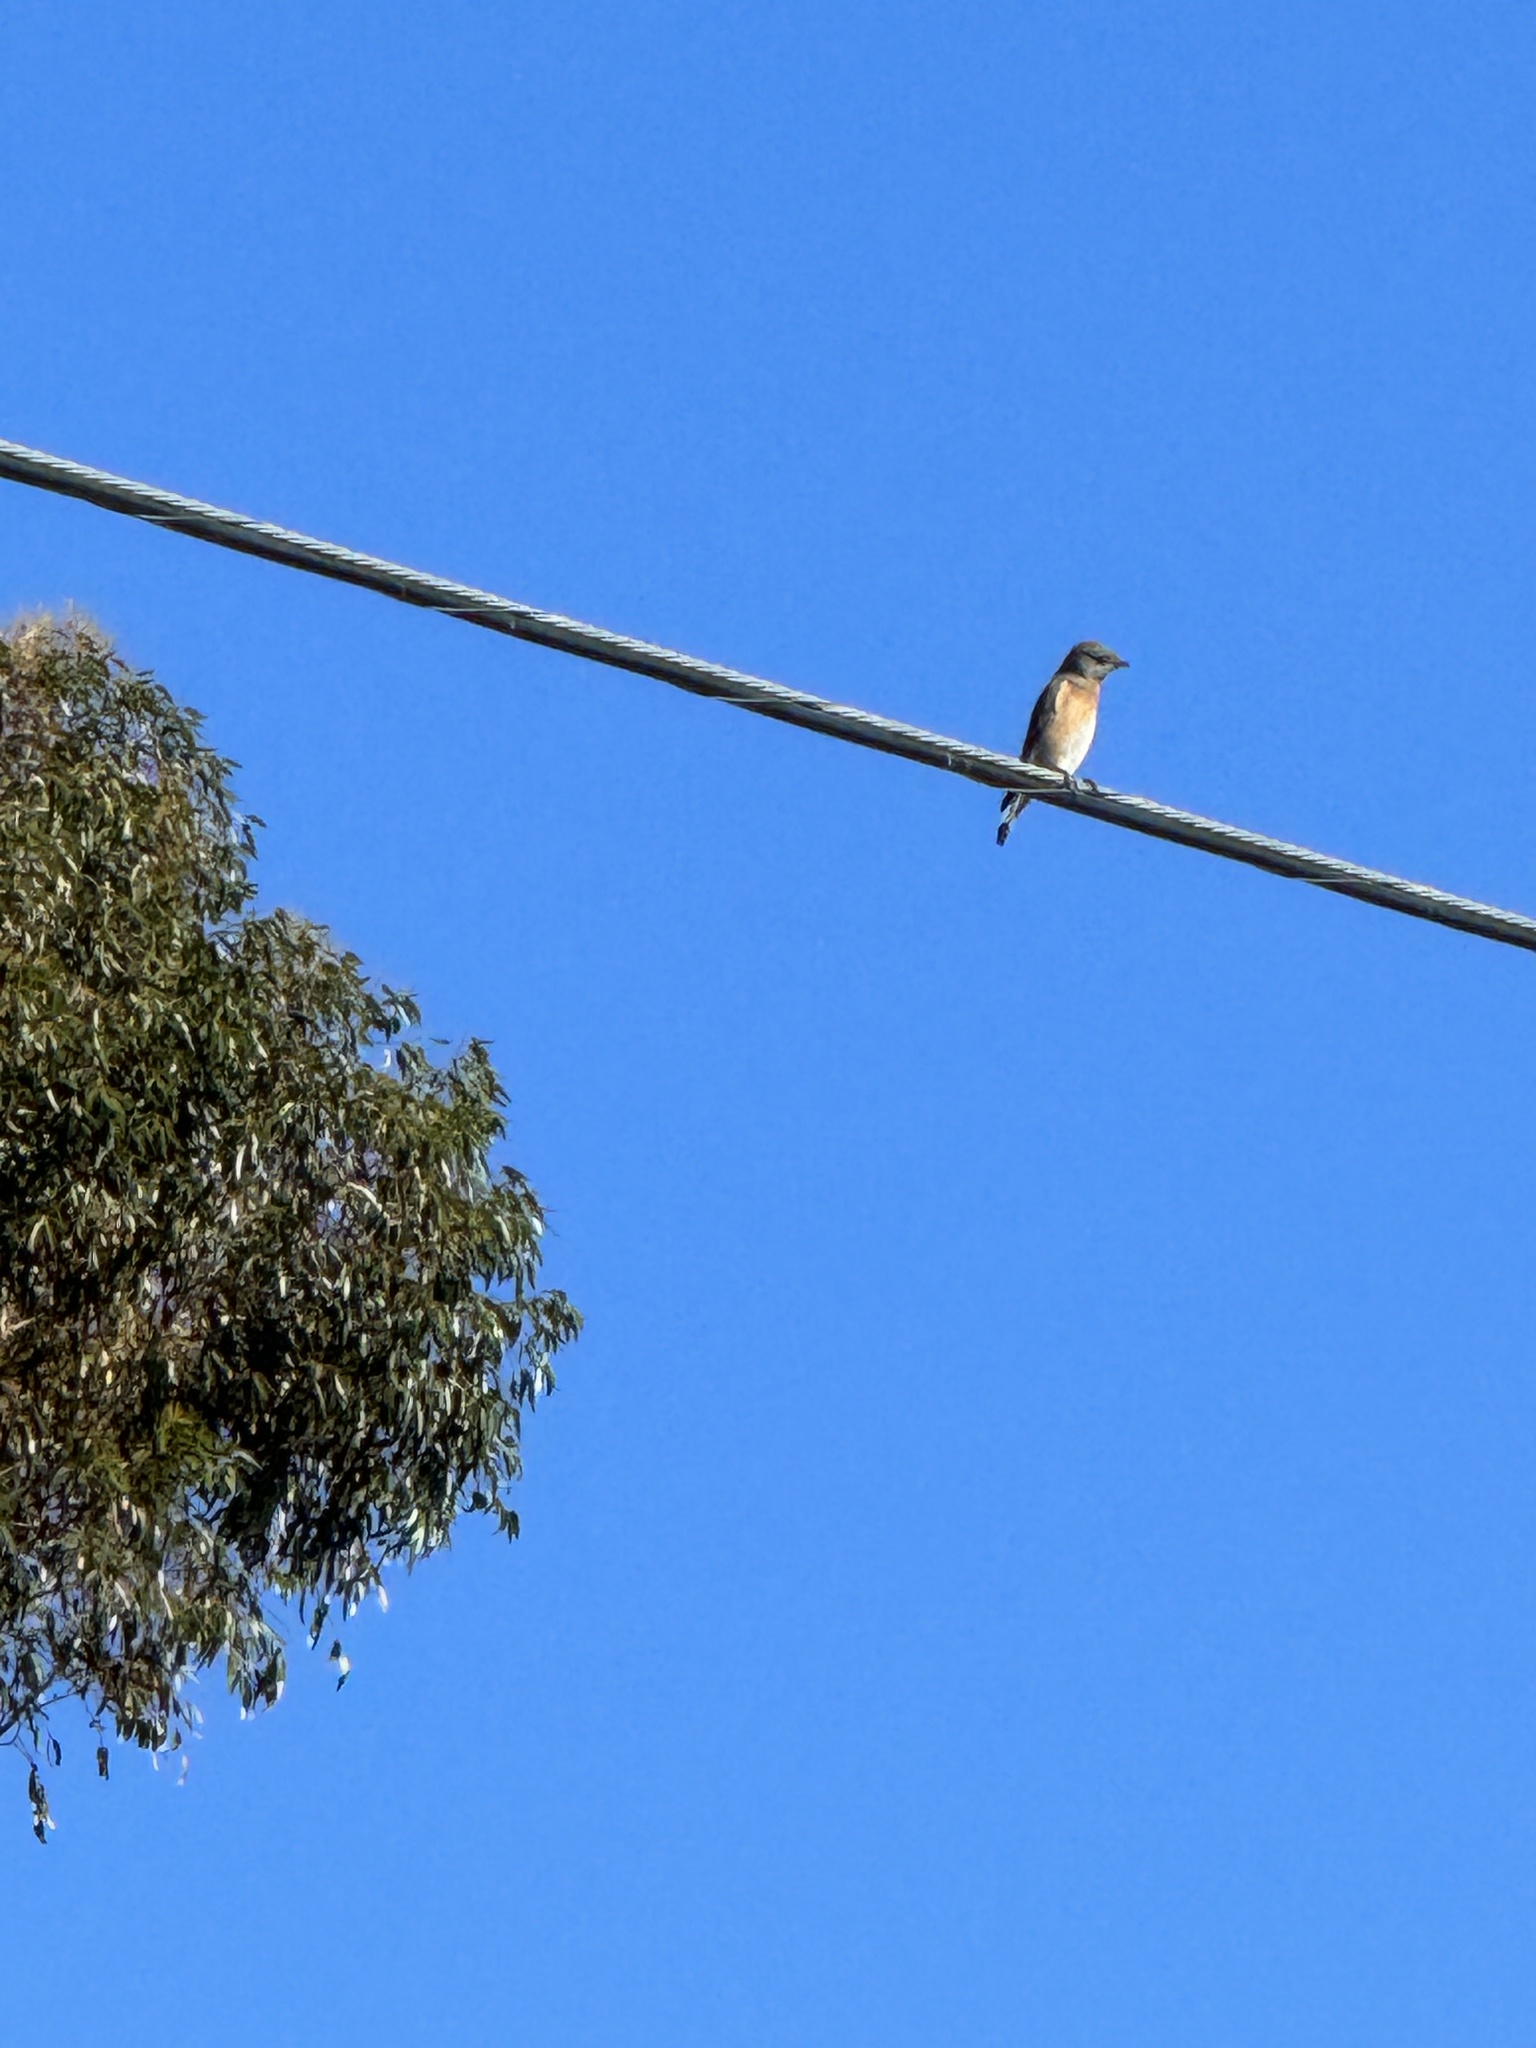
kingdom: Animalia
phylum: Chordata
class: Aves
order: Passeriformes
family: Turdidae
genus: Sialia
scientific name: Sialia mexicana
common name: Western bluebird
